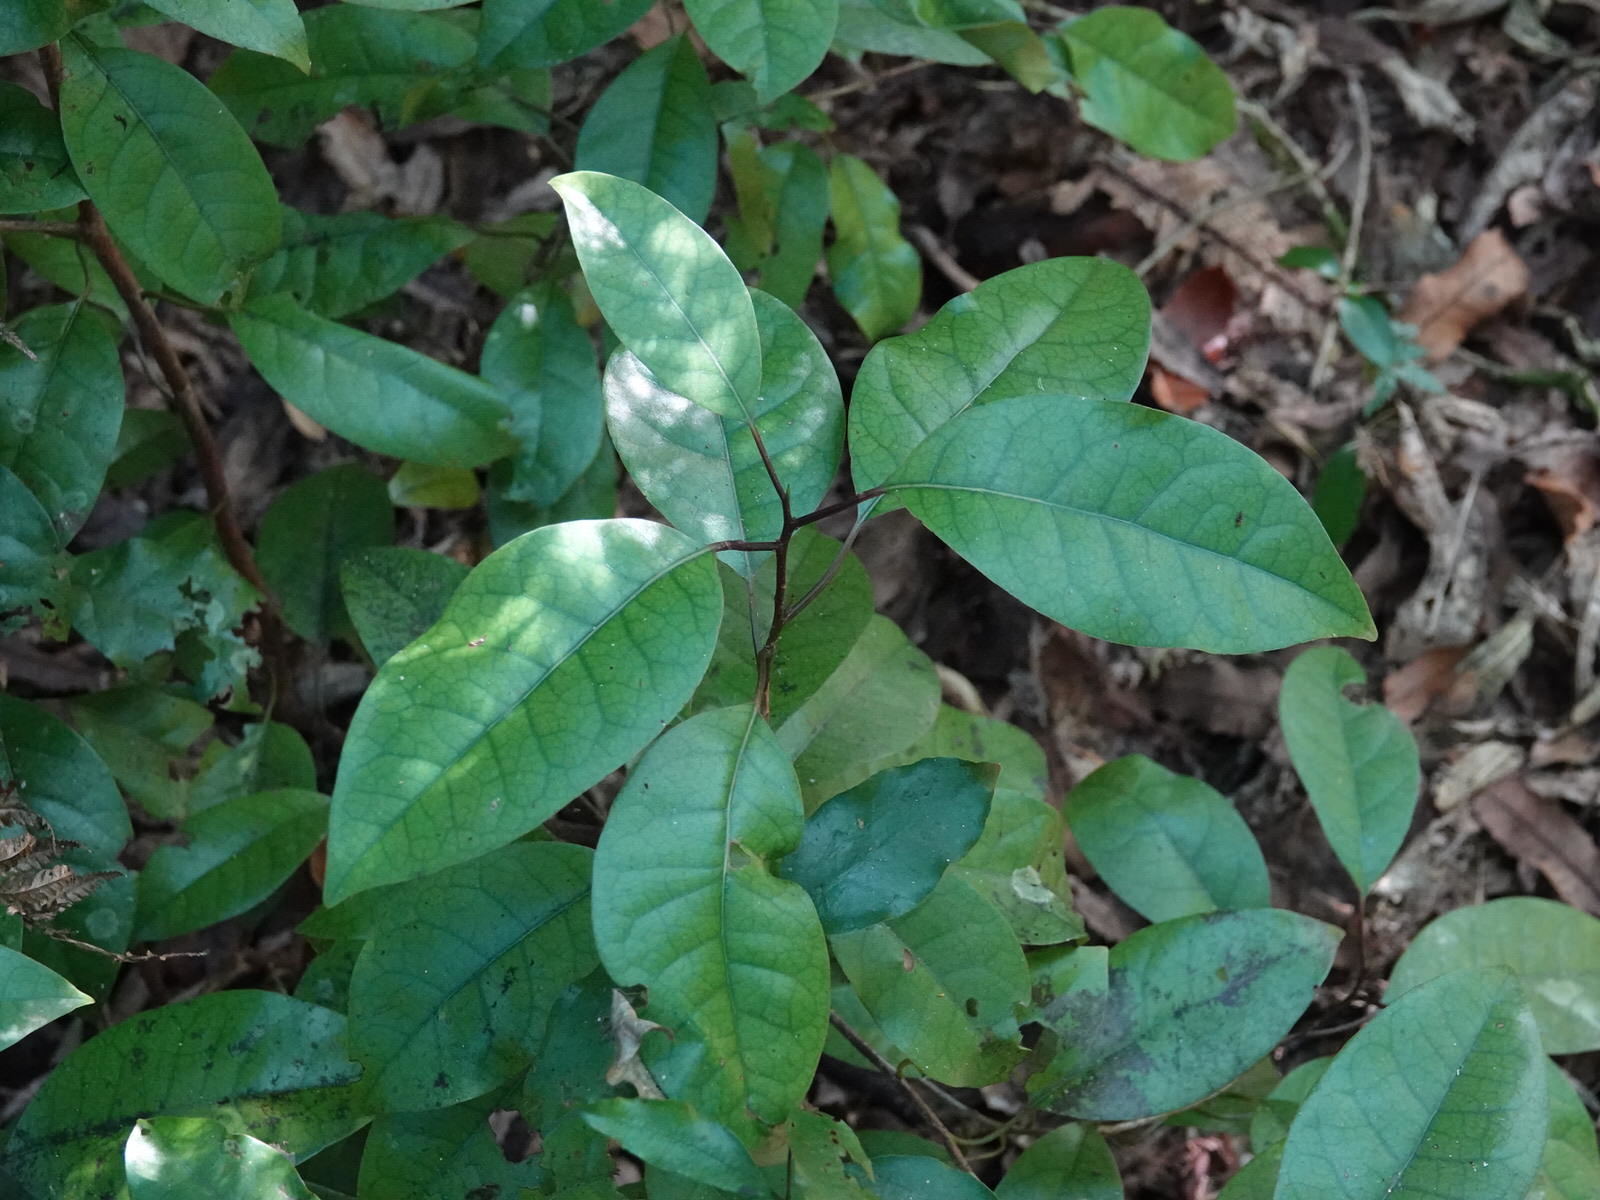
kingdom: Plantae
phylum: Tracheophyta
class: Magnoliopsida
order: Laurales
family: Lauraceae
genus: Litsea
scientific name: Litsea calicaris
